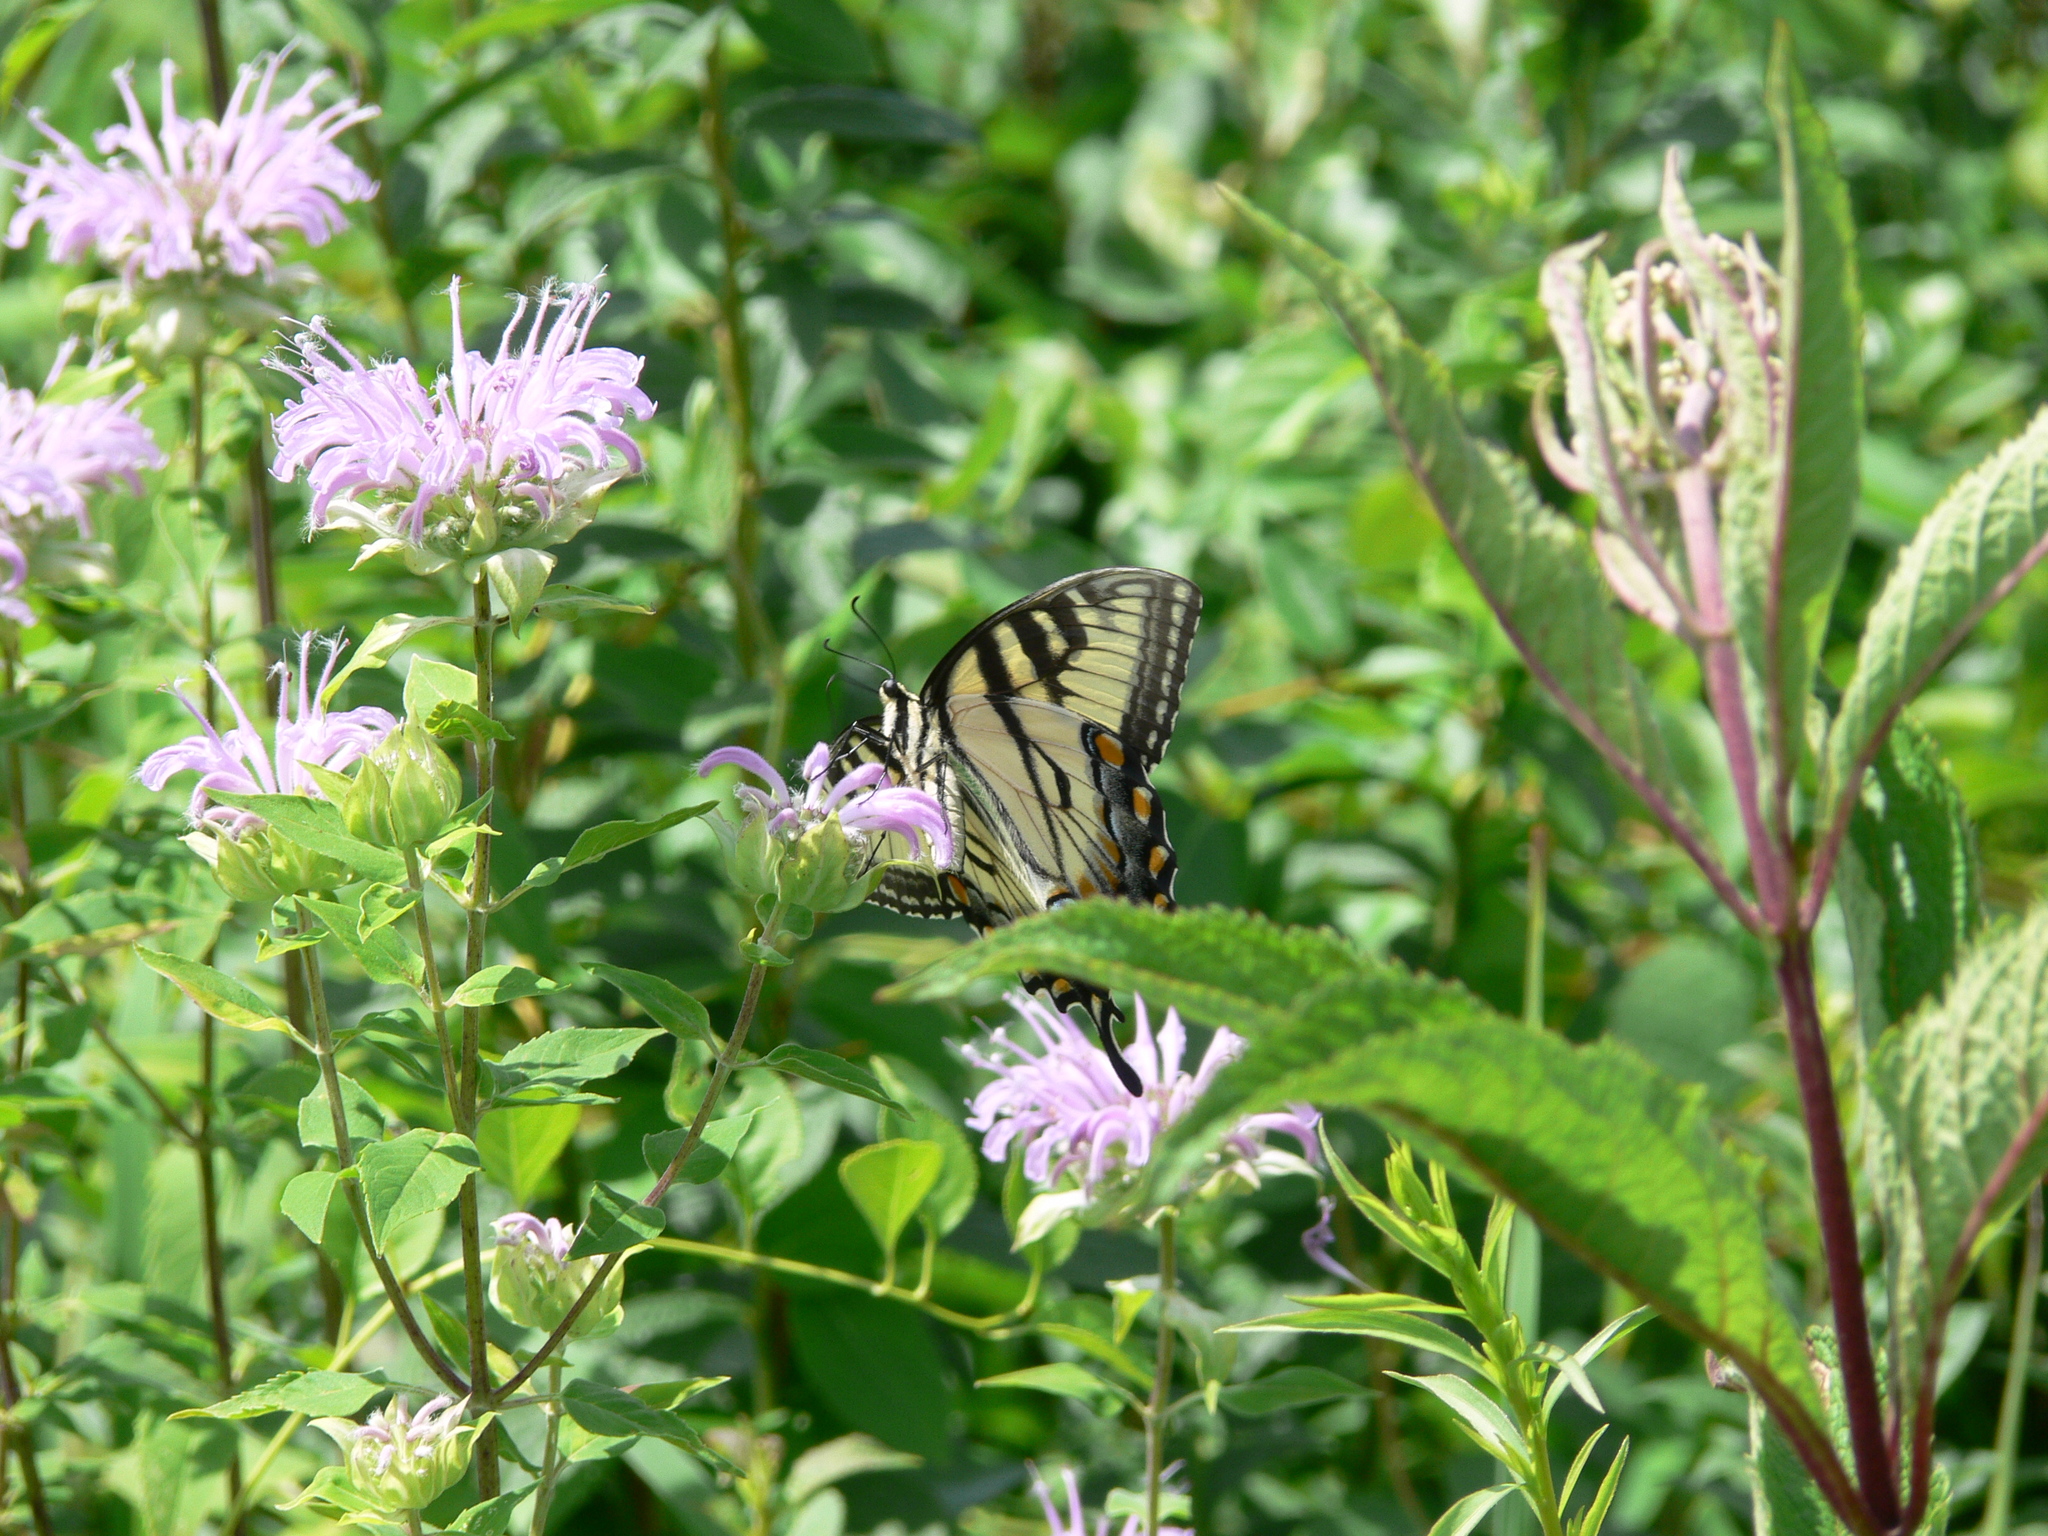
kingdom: Animalia
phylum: Arthropoda
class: Insecta
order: Lepidoptera
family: Papilionidae
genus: Papilio
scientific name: Papilio glaucus
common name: Tiger swallowtail
